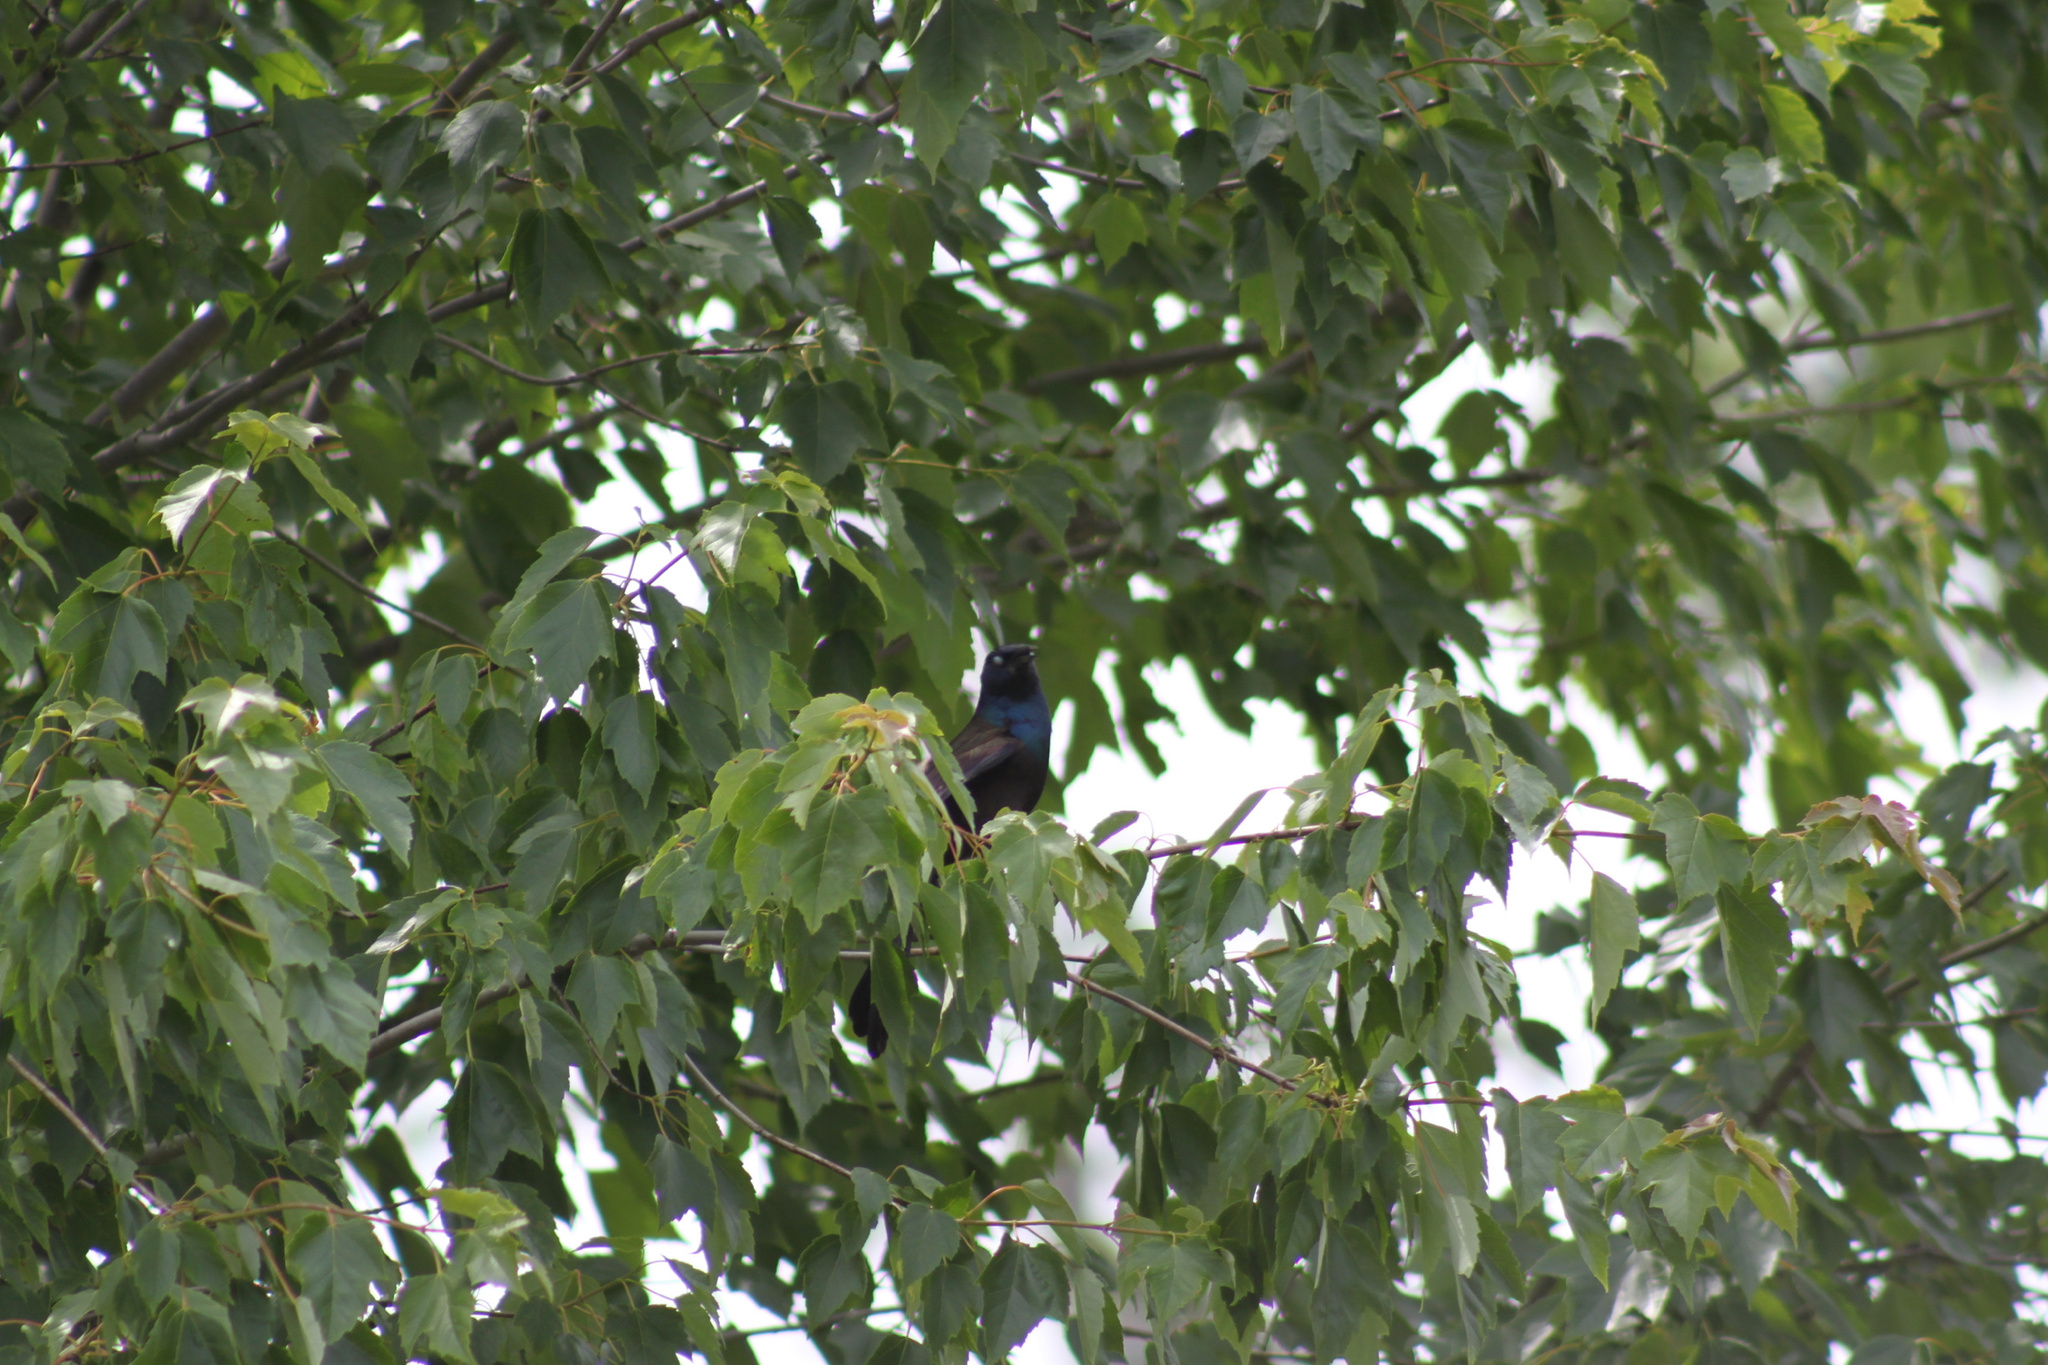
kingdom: Animalia
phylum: Chordata
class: Aves
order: Passeriformes
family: Icteridae
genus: Quiscalus
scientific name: Quiscalus quiscula
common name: Common grackle
